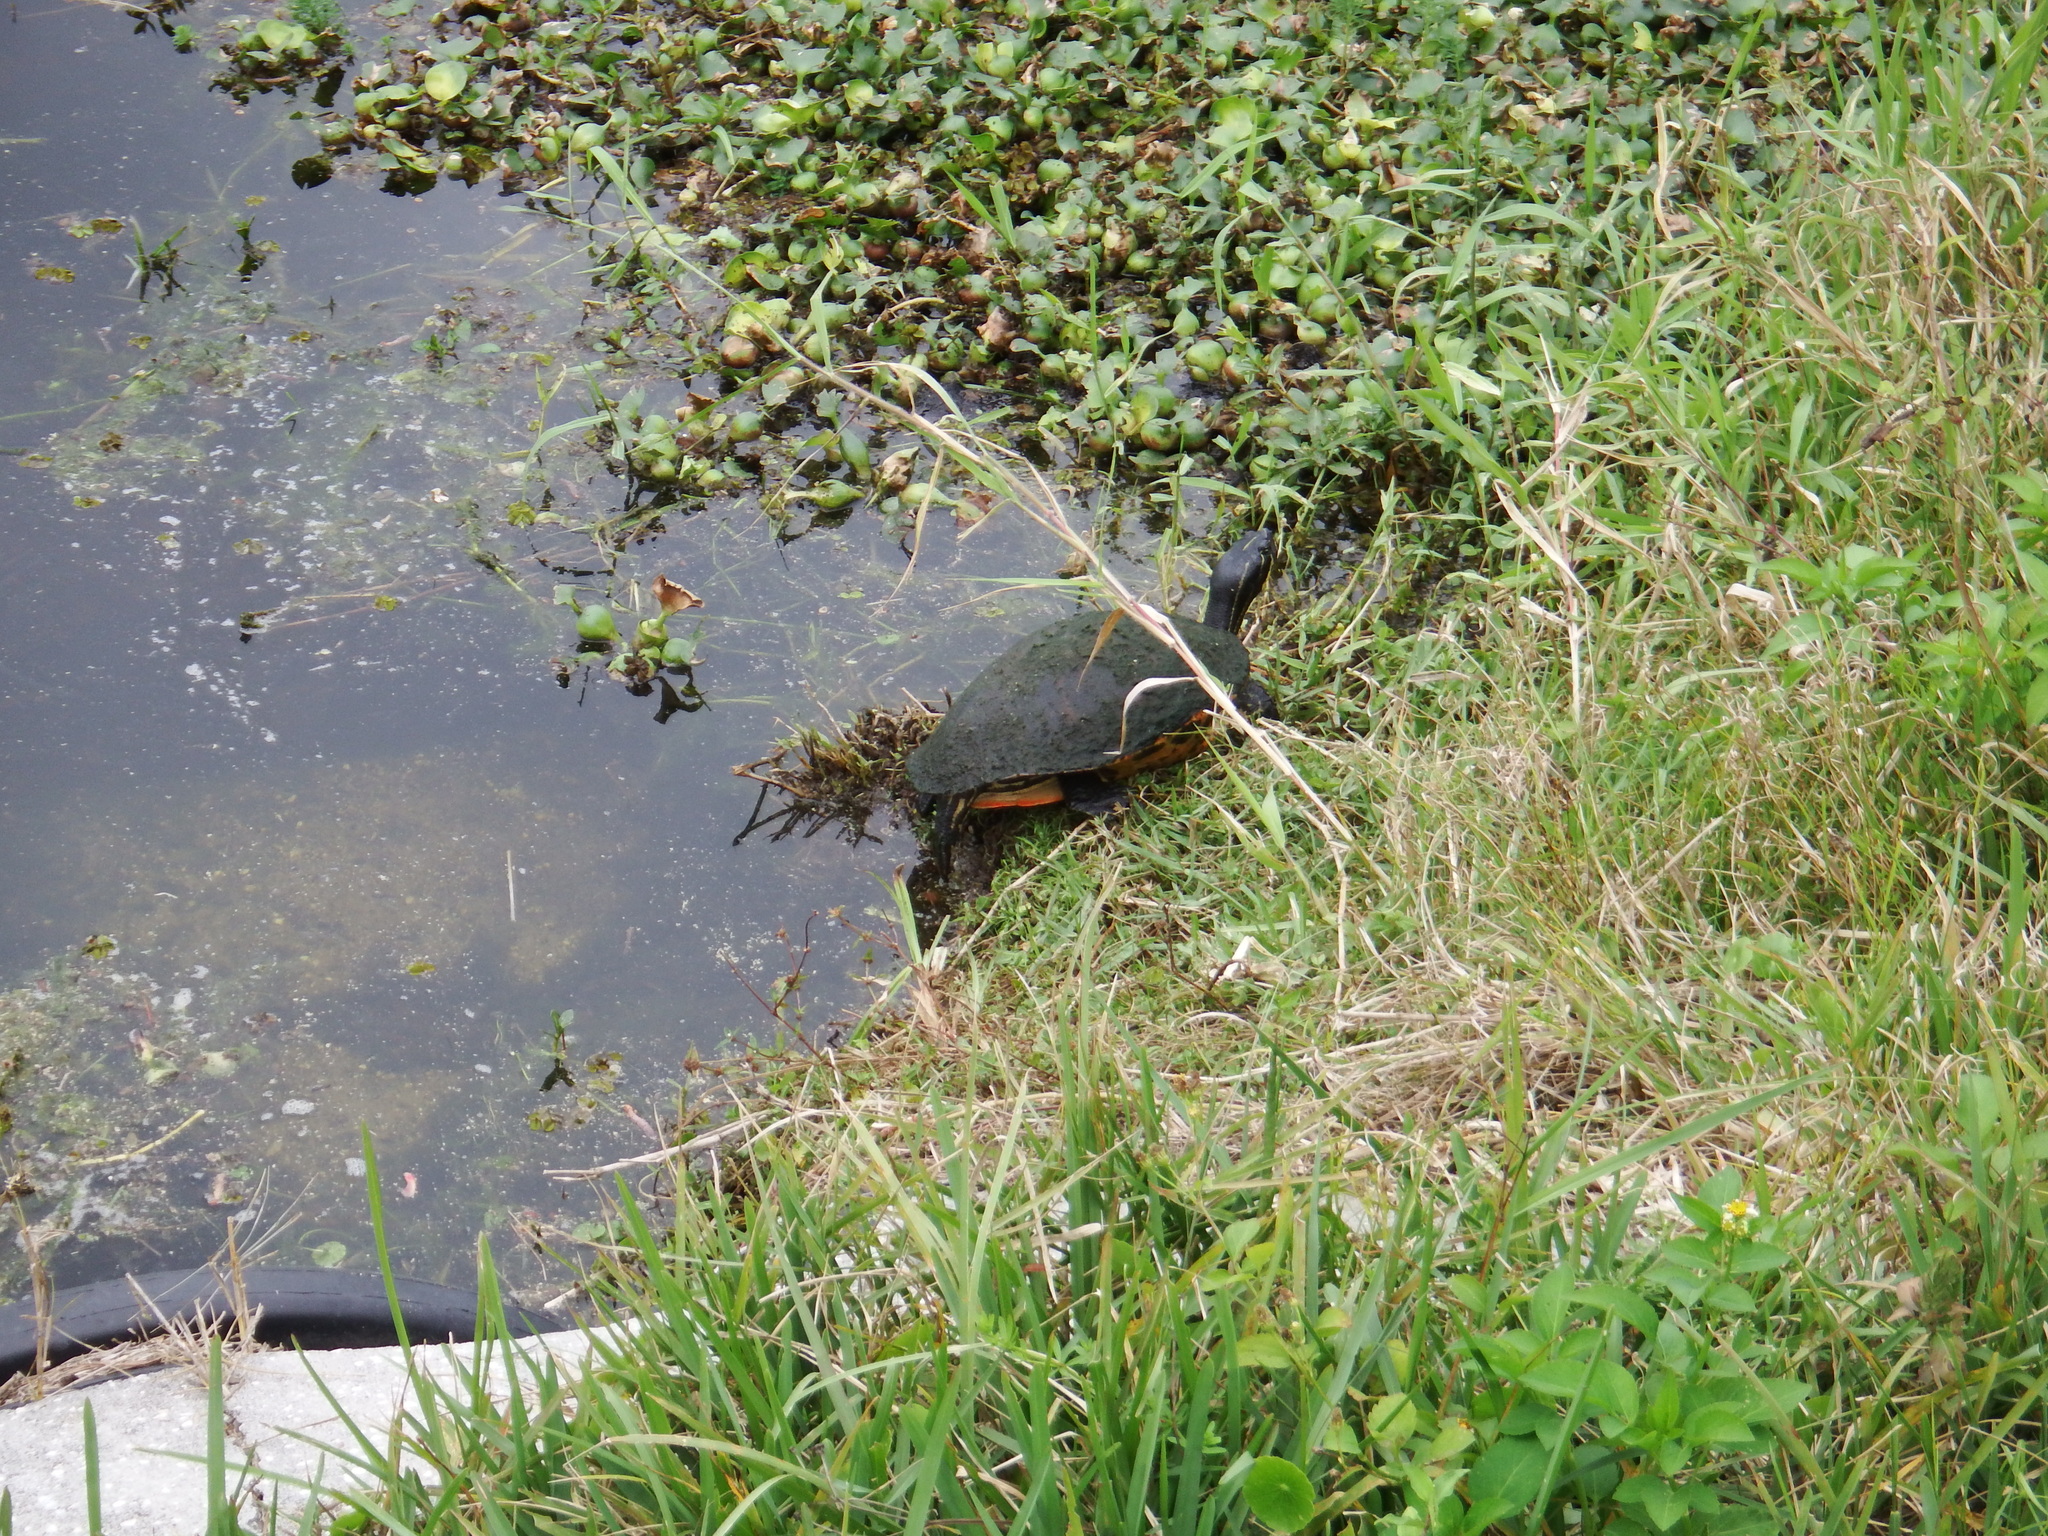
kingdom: Animalia
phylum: Chordata
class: Testudines
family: Emydidae
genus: Pseudemys
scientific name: Pseudemys nelsoni
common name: Florida red-bellied turtle
